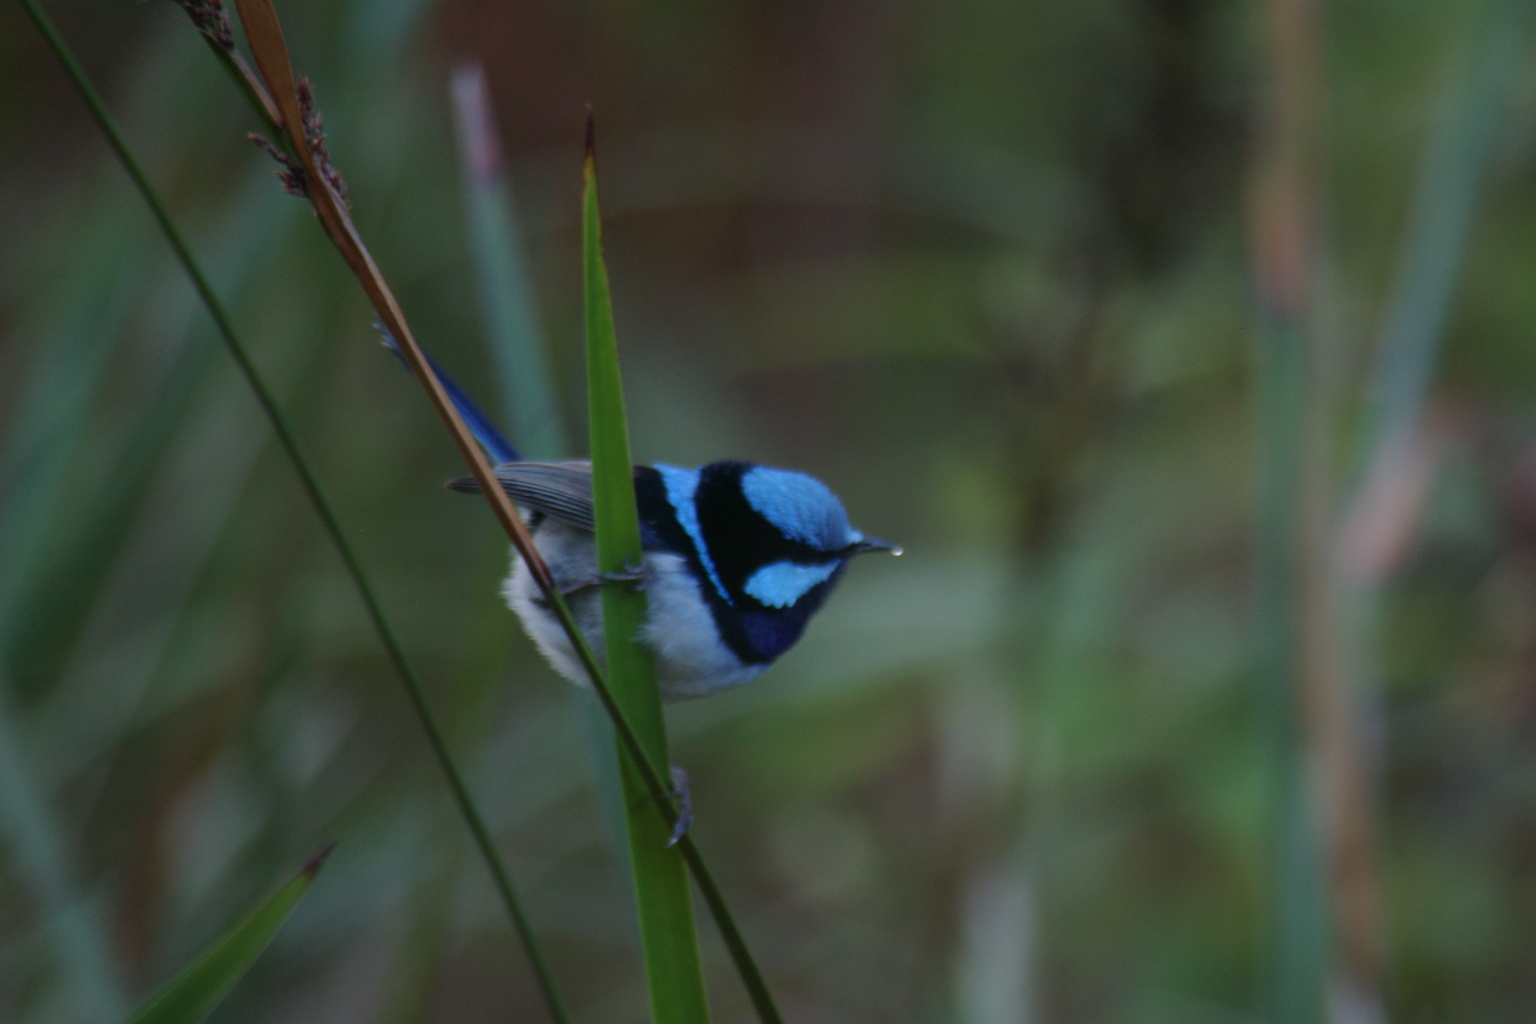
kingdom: Animalia
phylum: Chordata
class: Aves
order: Passeriformes
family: Maluridae
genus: Malurus
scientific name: Malurus cyaneus
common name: Superb fairywren
